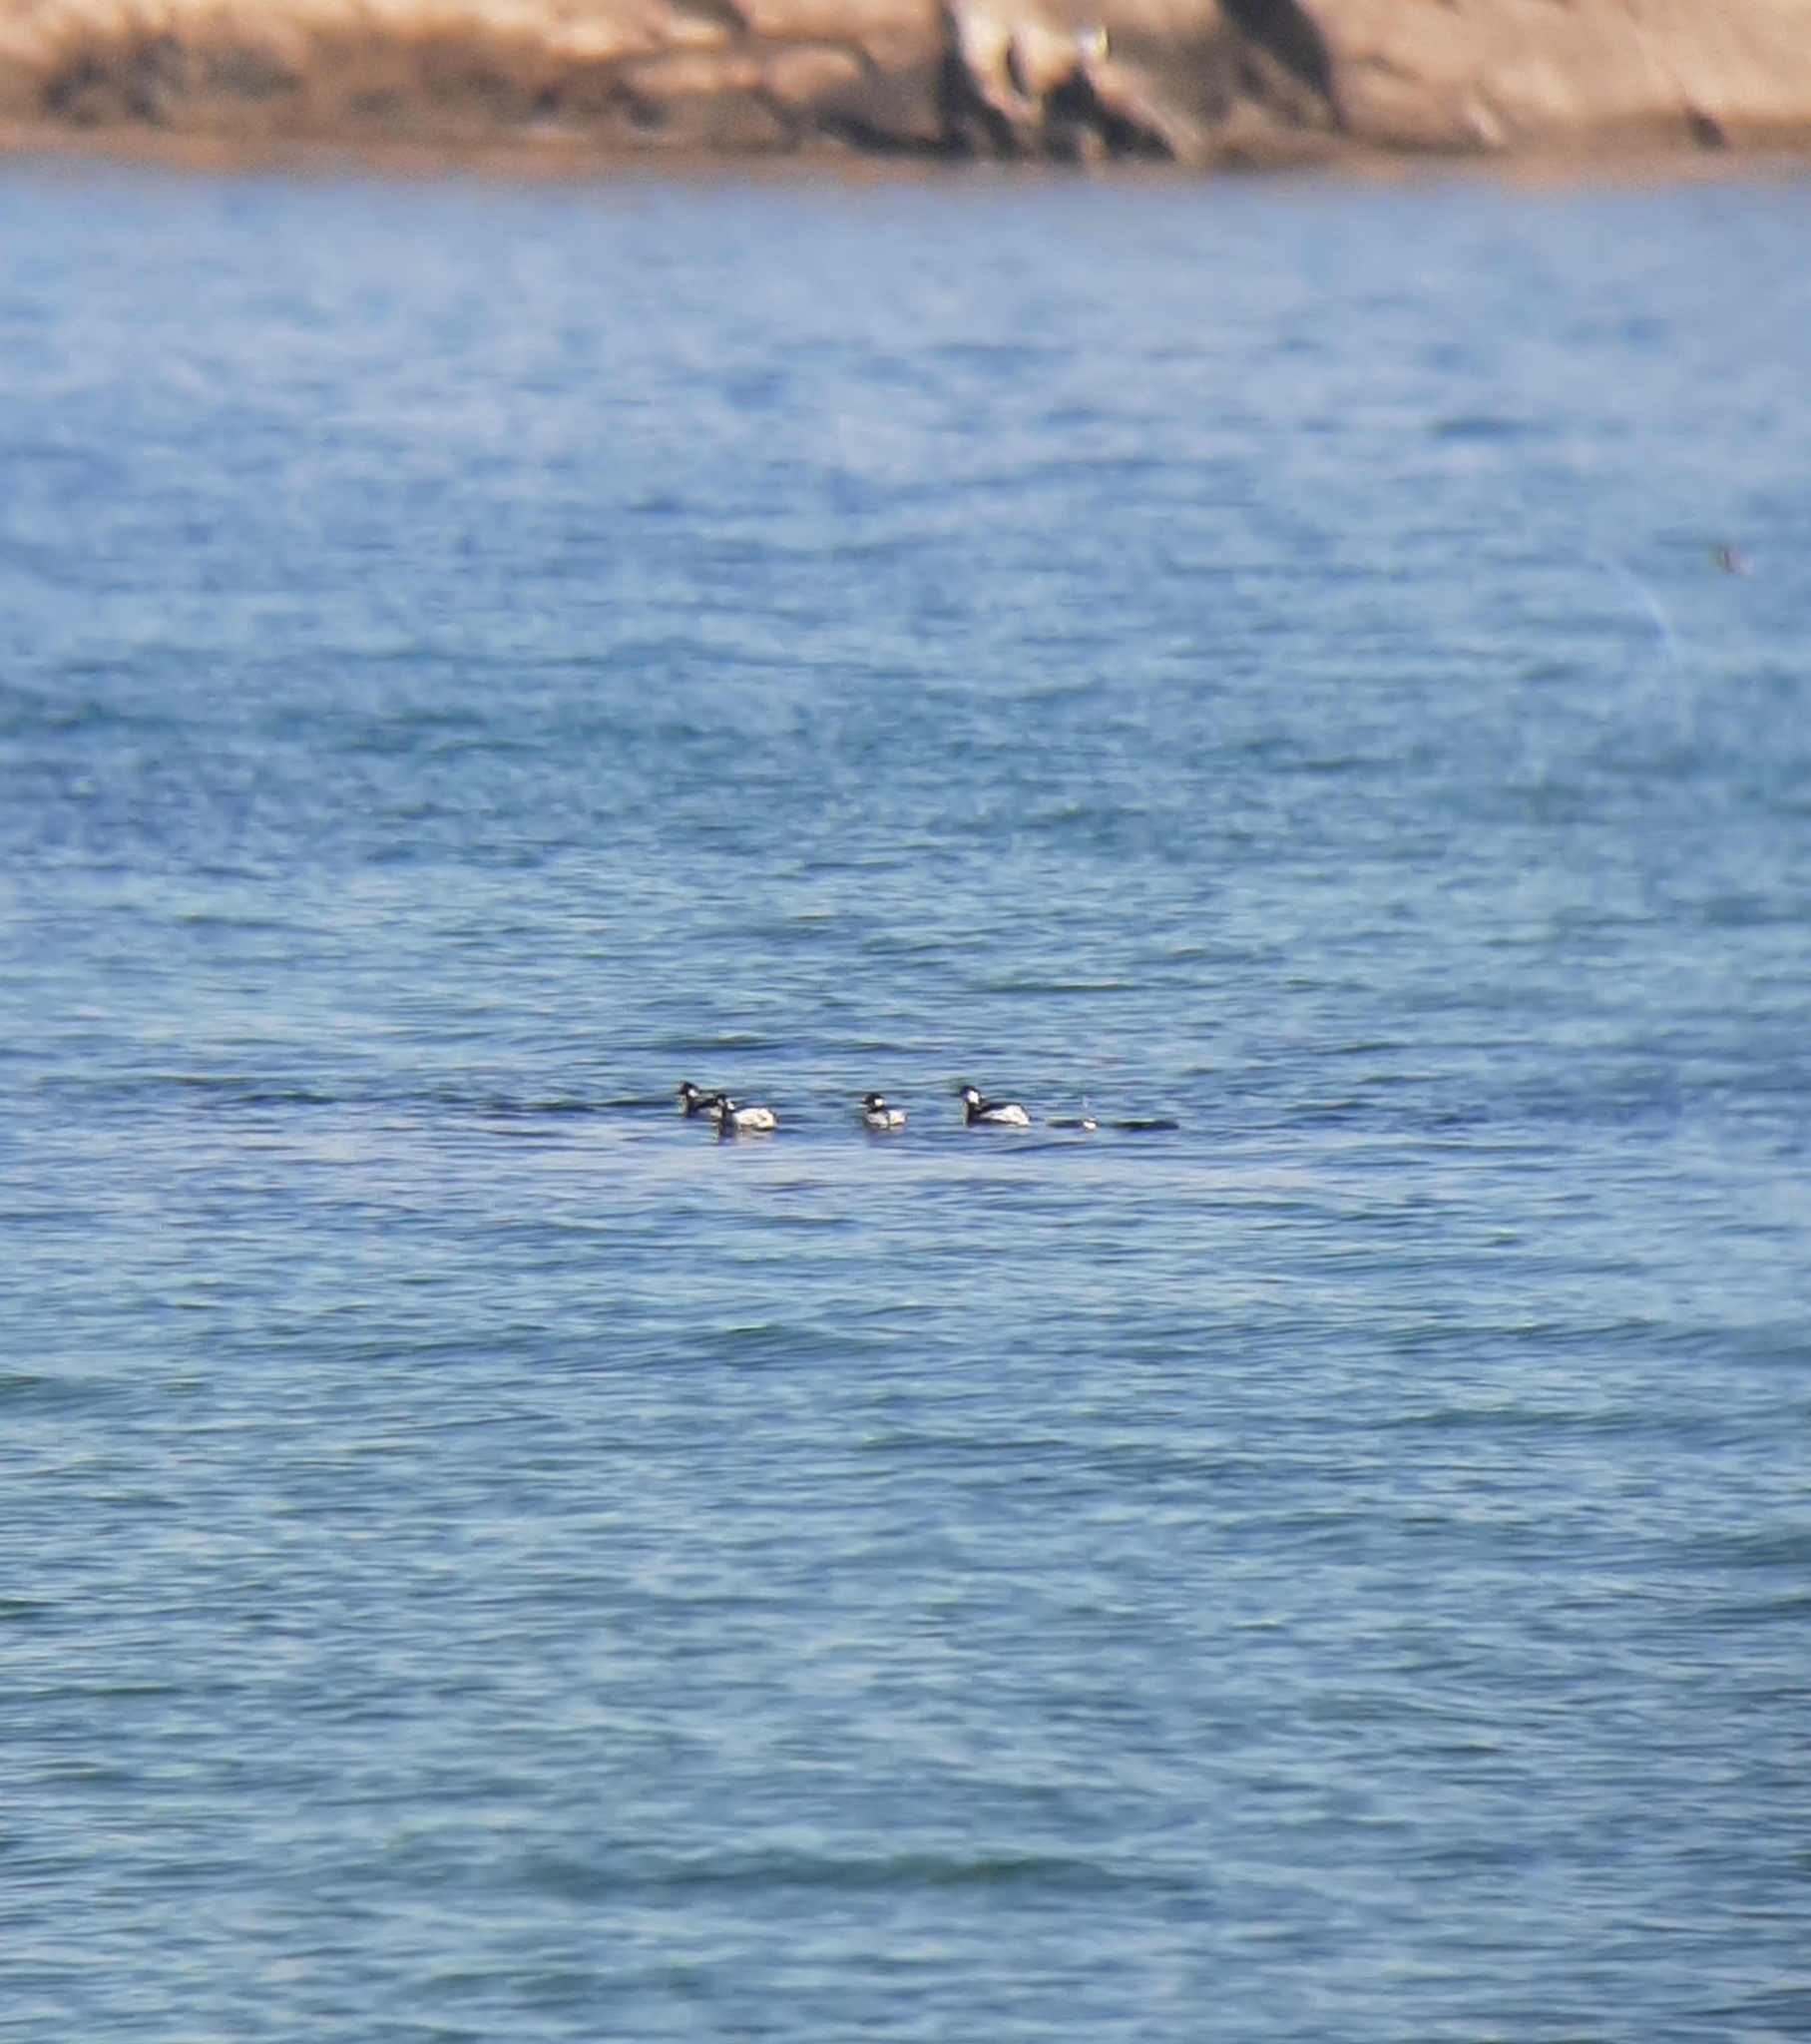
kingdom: Animalia
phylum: Chordata
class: Aves
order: Podicipediformes
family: Podicipedidae
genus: Podiceps
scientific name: Podiceps nigricollis
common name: Black-necked grebe
